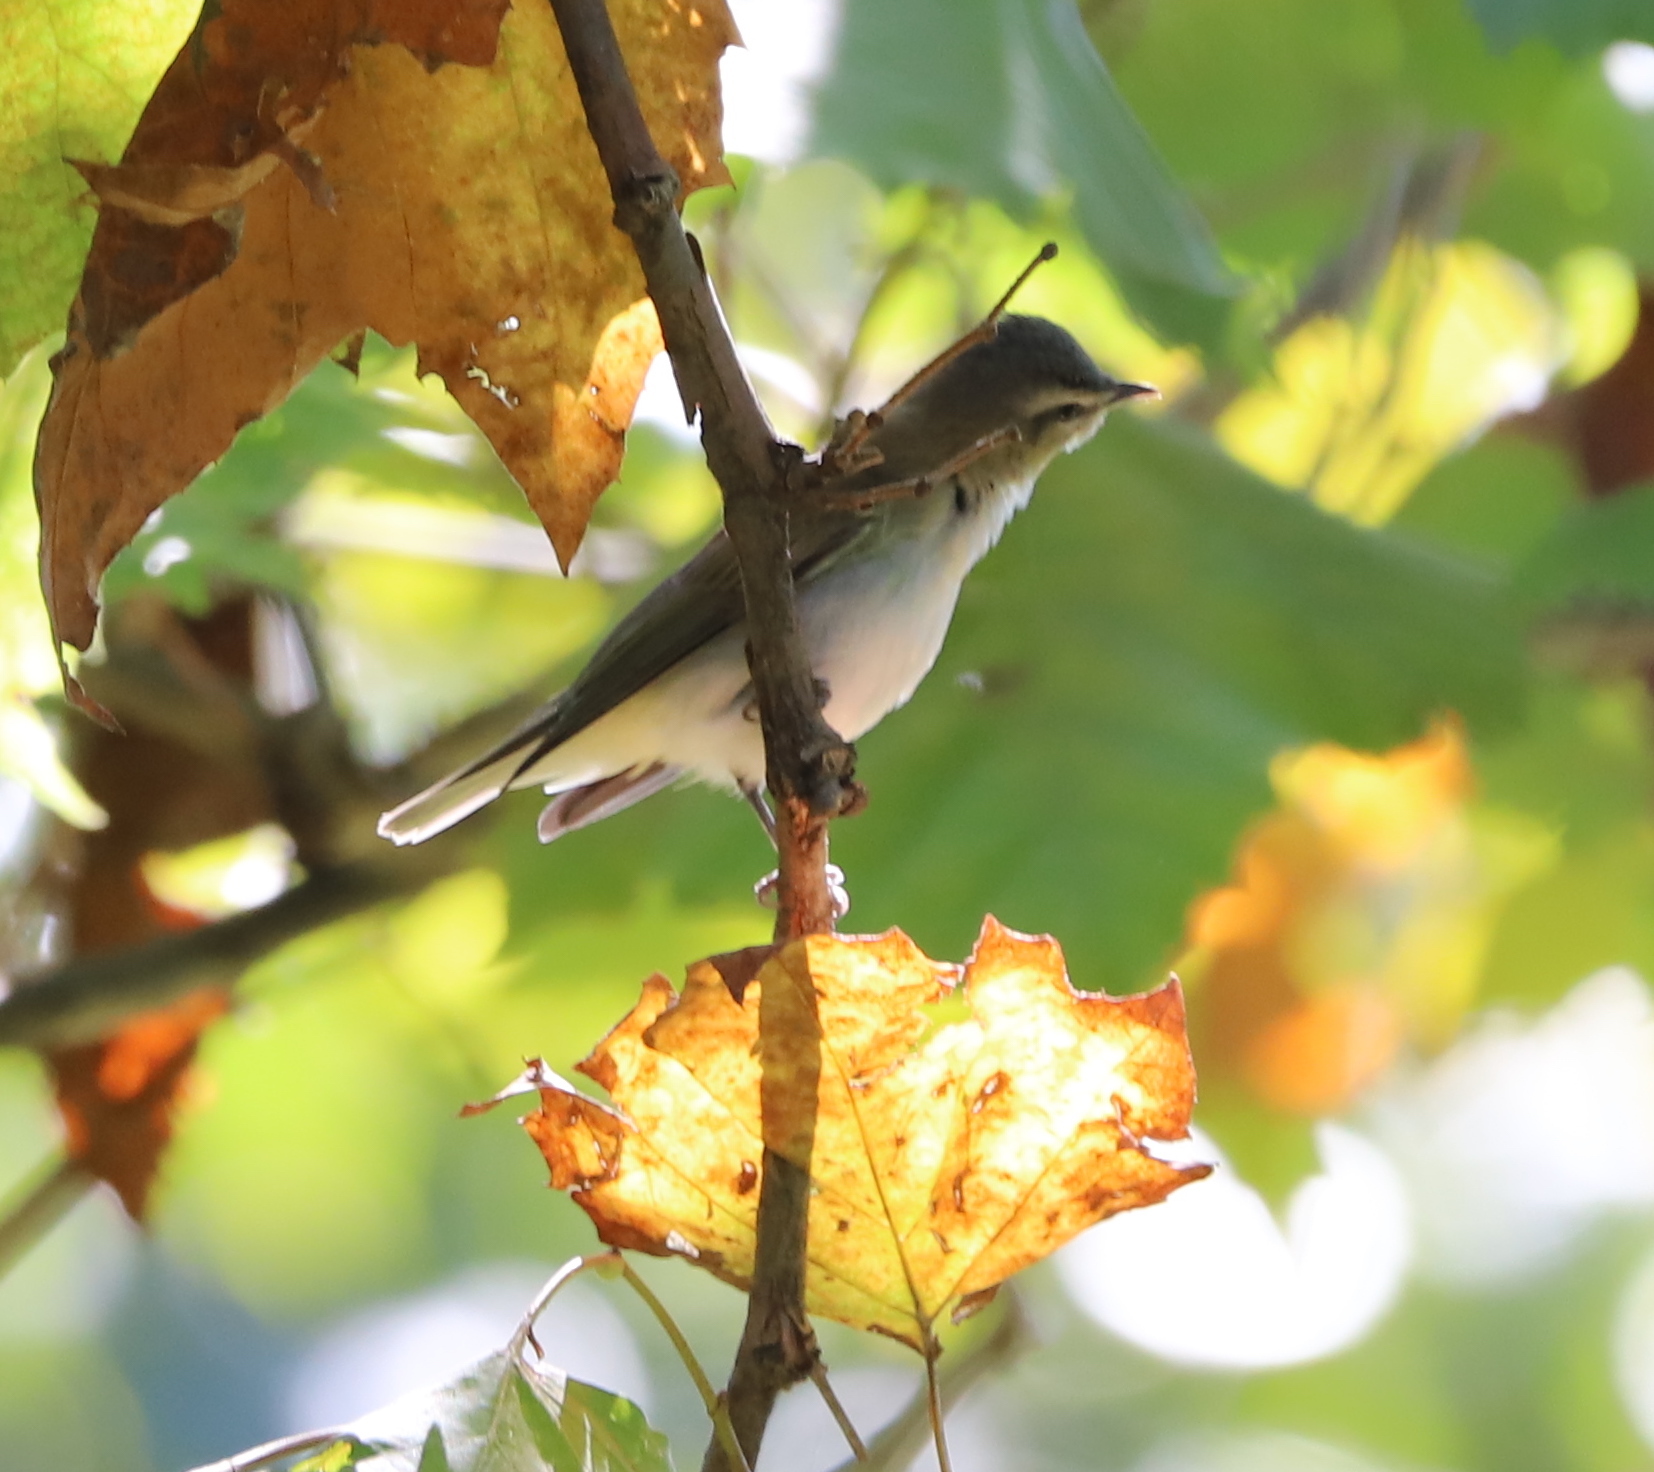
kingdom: Animalia
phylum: Chordata
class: Aves
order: Passeriformes
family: Vireonidae
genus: Vireo
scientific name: Vireo olivaceus
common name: Red-eyed vireo
